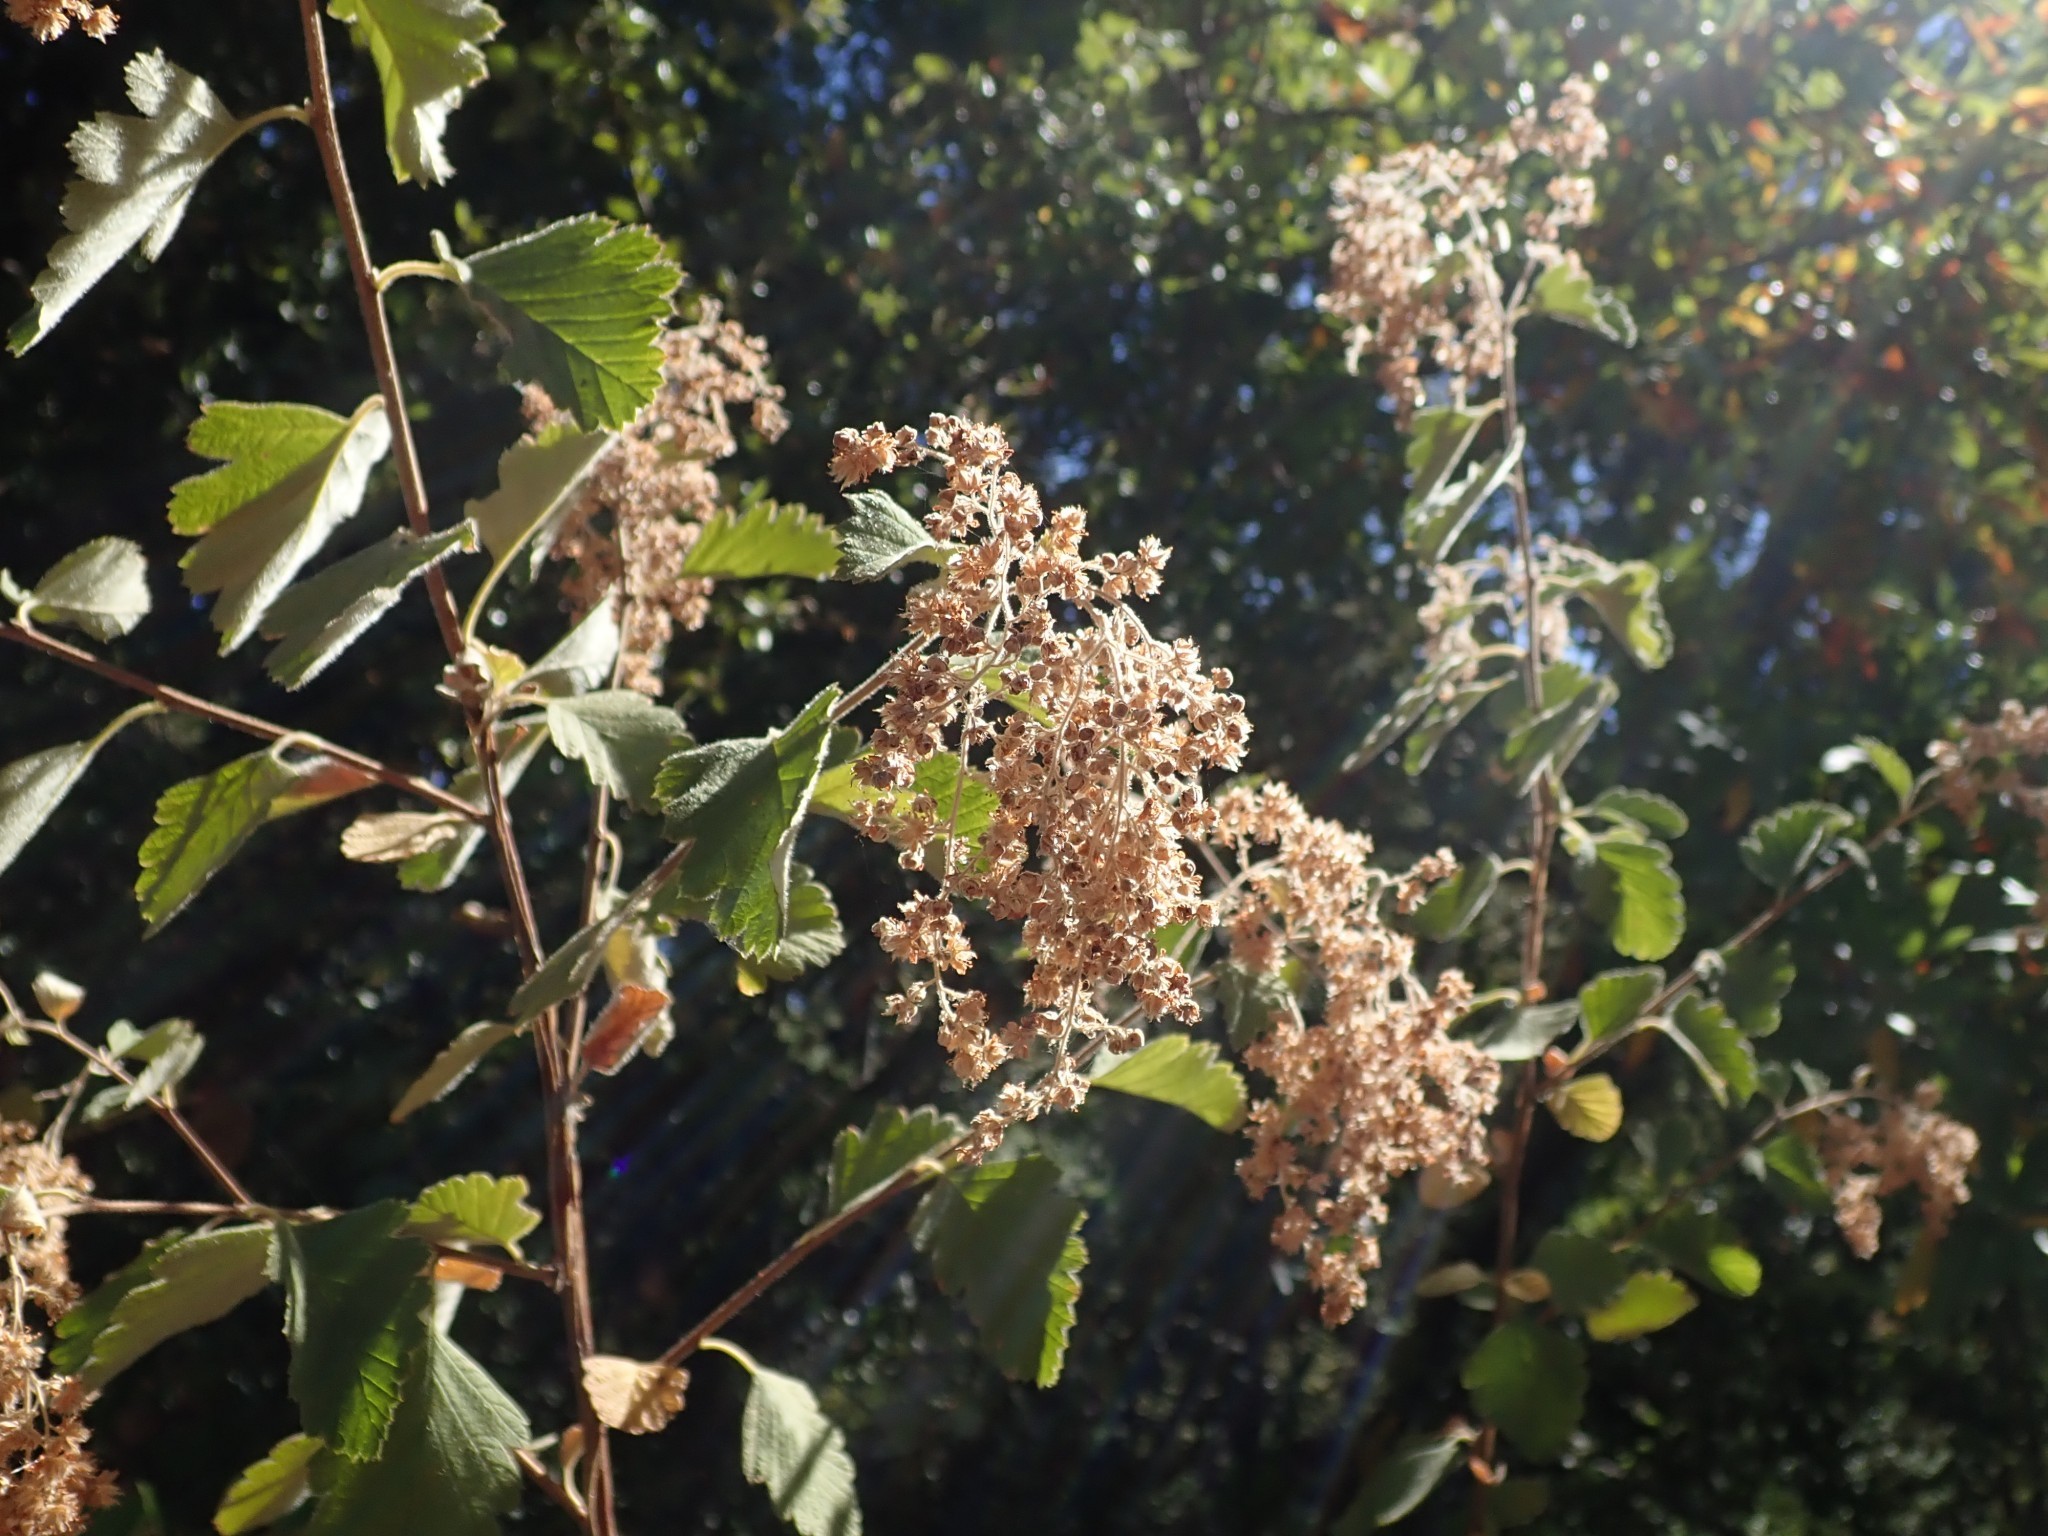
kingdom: Plantae
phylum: Tracheophyta
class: Magnoliopsida
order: Rosales
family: Rosaceae
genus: Holodiscus
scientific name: Holodiscus discolor
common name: Oceanspray
